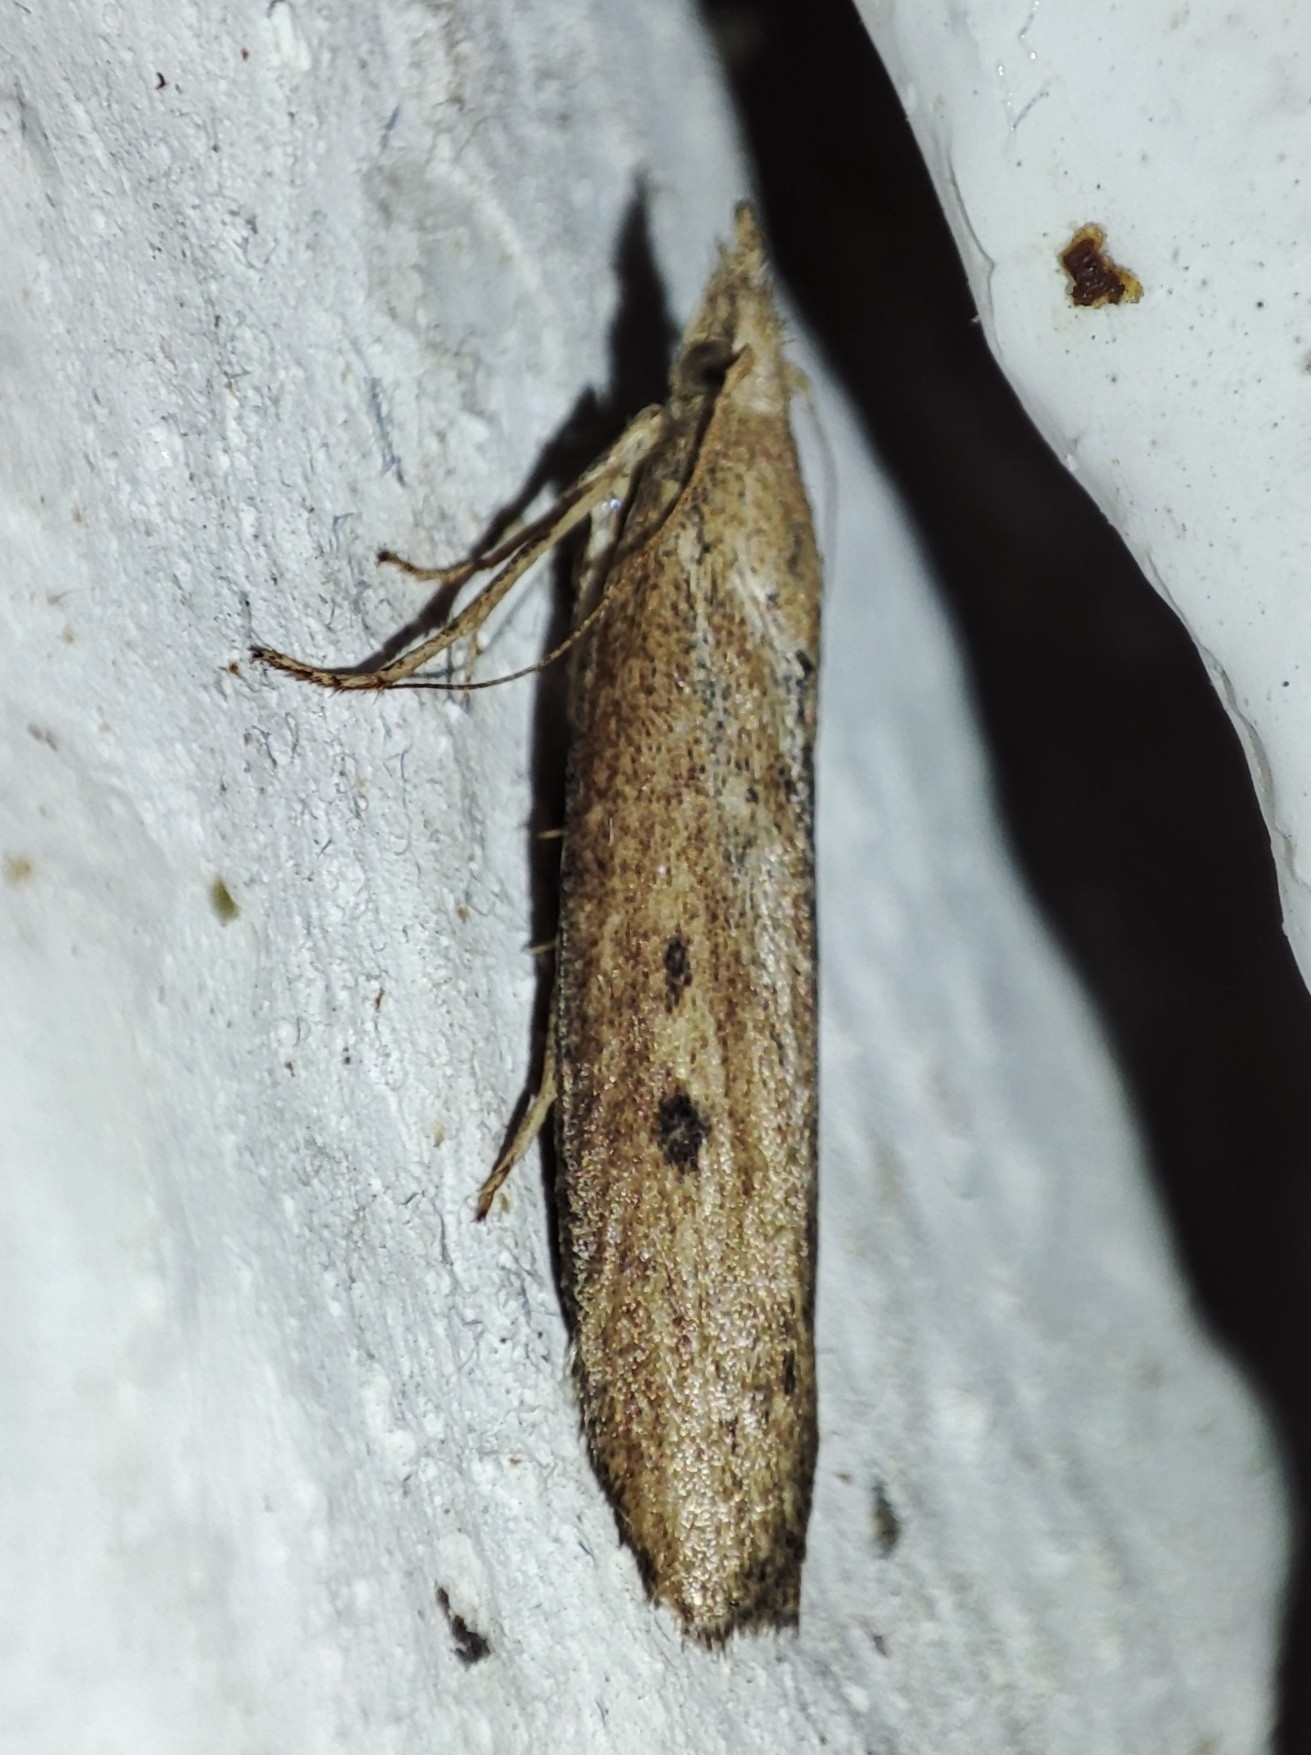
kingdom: Animalia
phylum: Arthropoda
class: Insecta
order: Lepidoptera
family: Pyralidae
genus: Aphomia
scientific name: Aphomia zelleri
